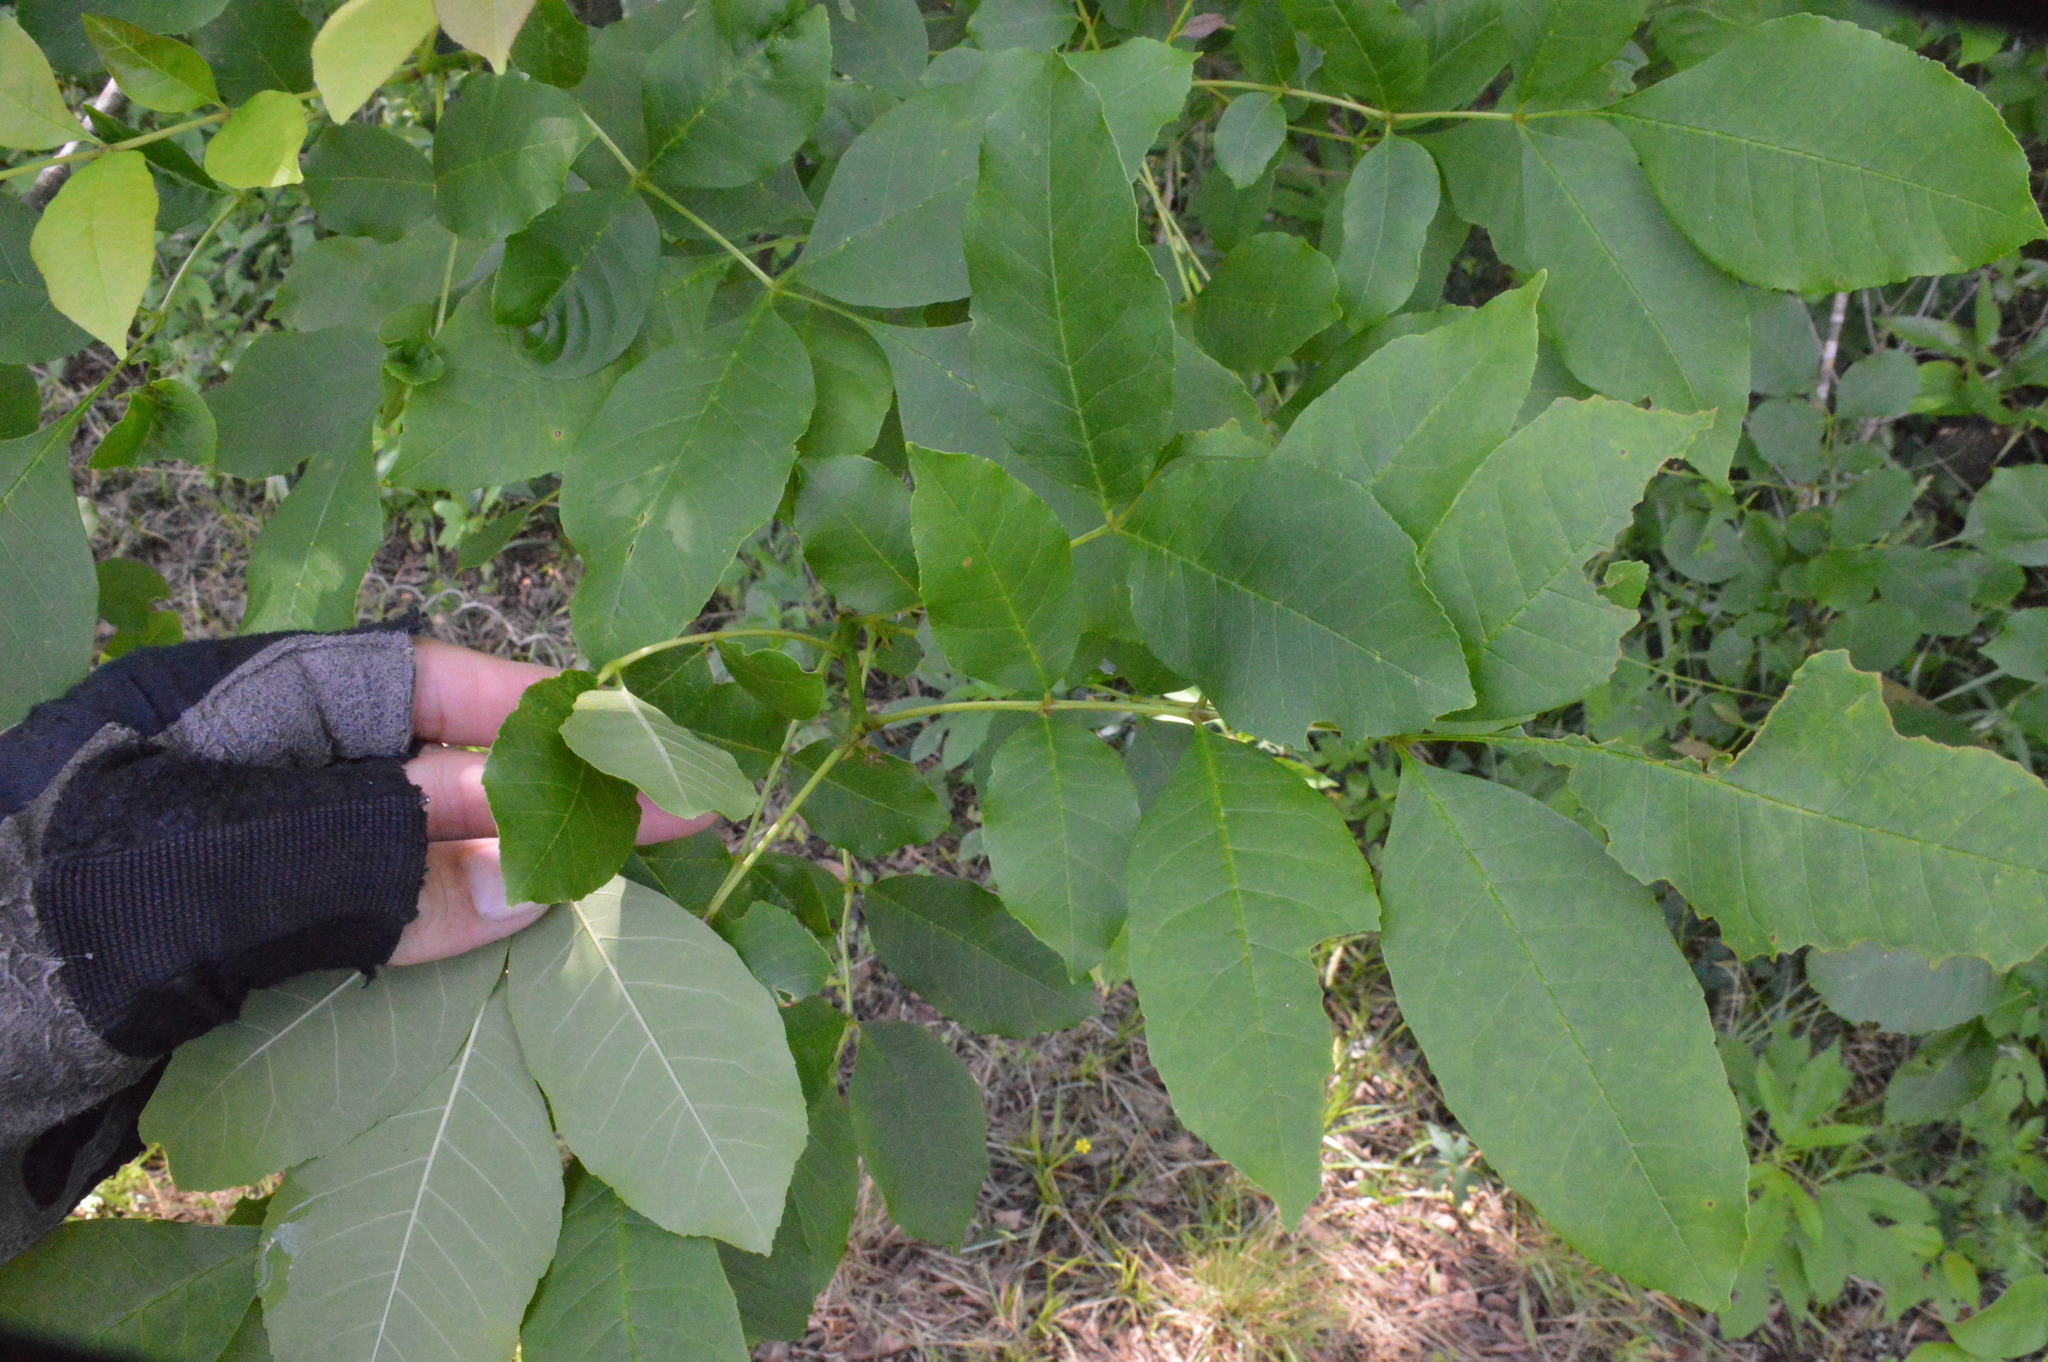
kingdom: Plantae
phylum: Tracheophyta
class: Magnoliopsida
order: Lamiales
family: Oleaceae
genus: Fraxinus
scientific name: Fraxinus pennsylvanica
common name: Green ash
